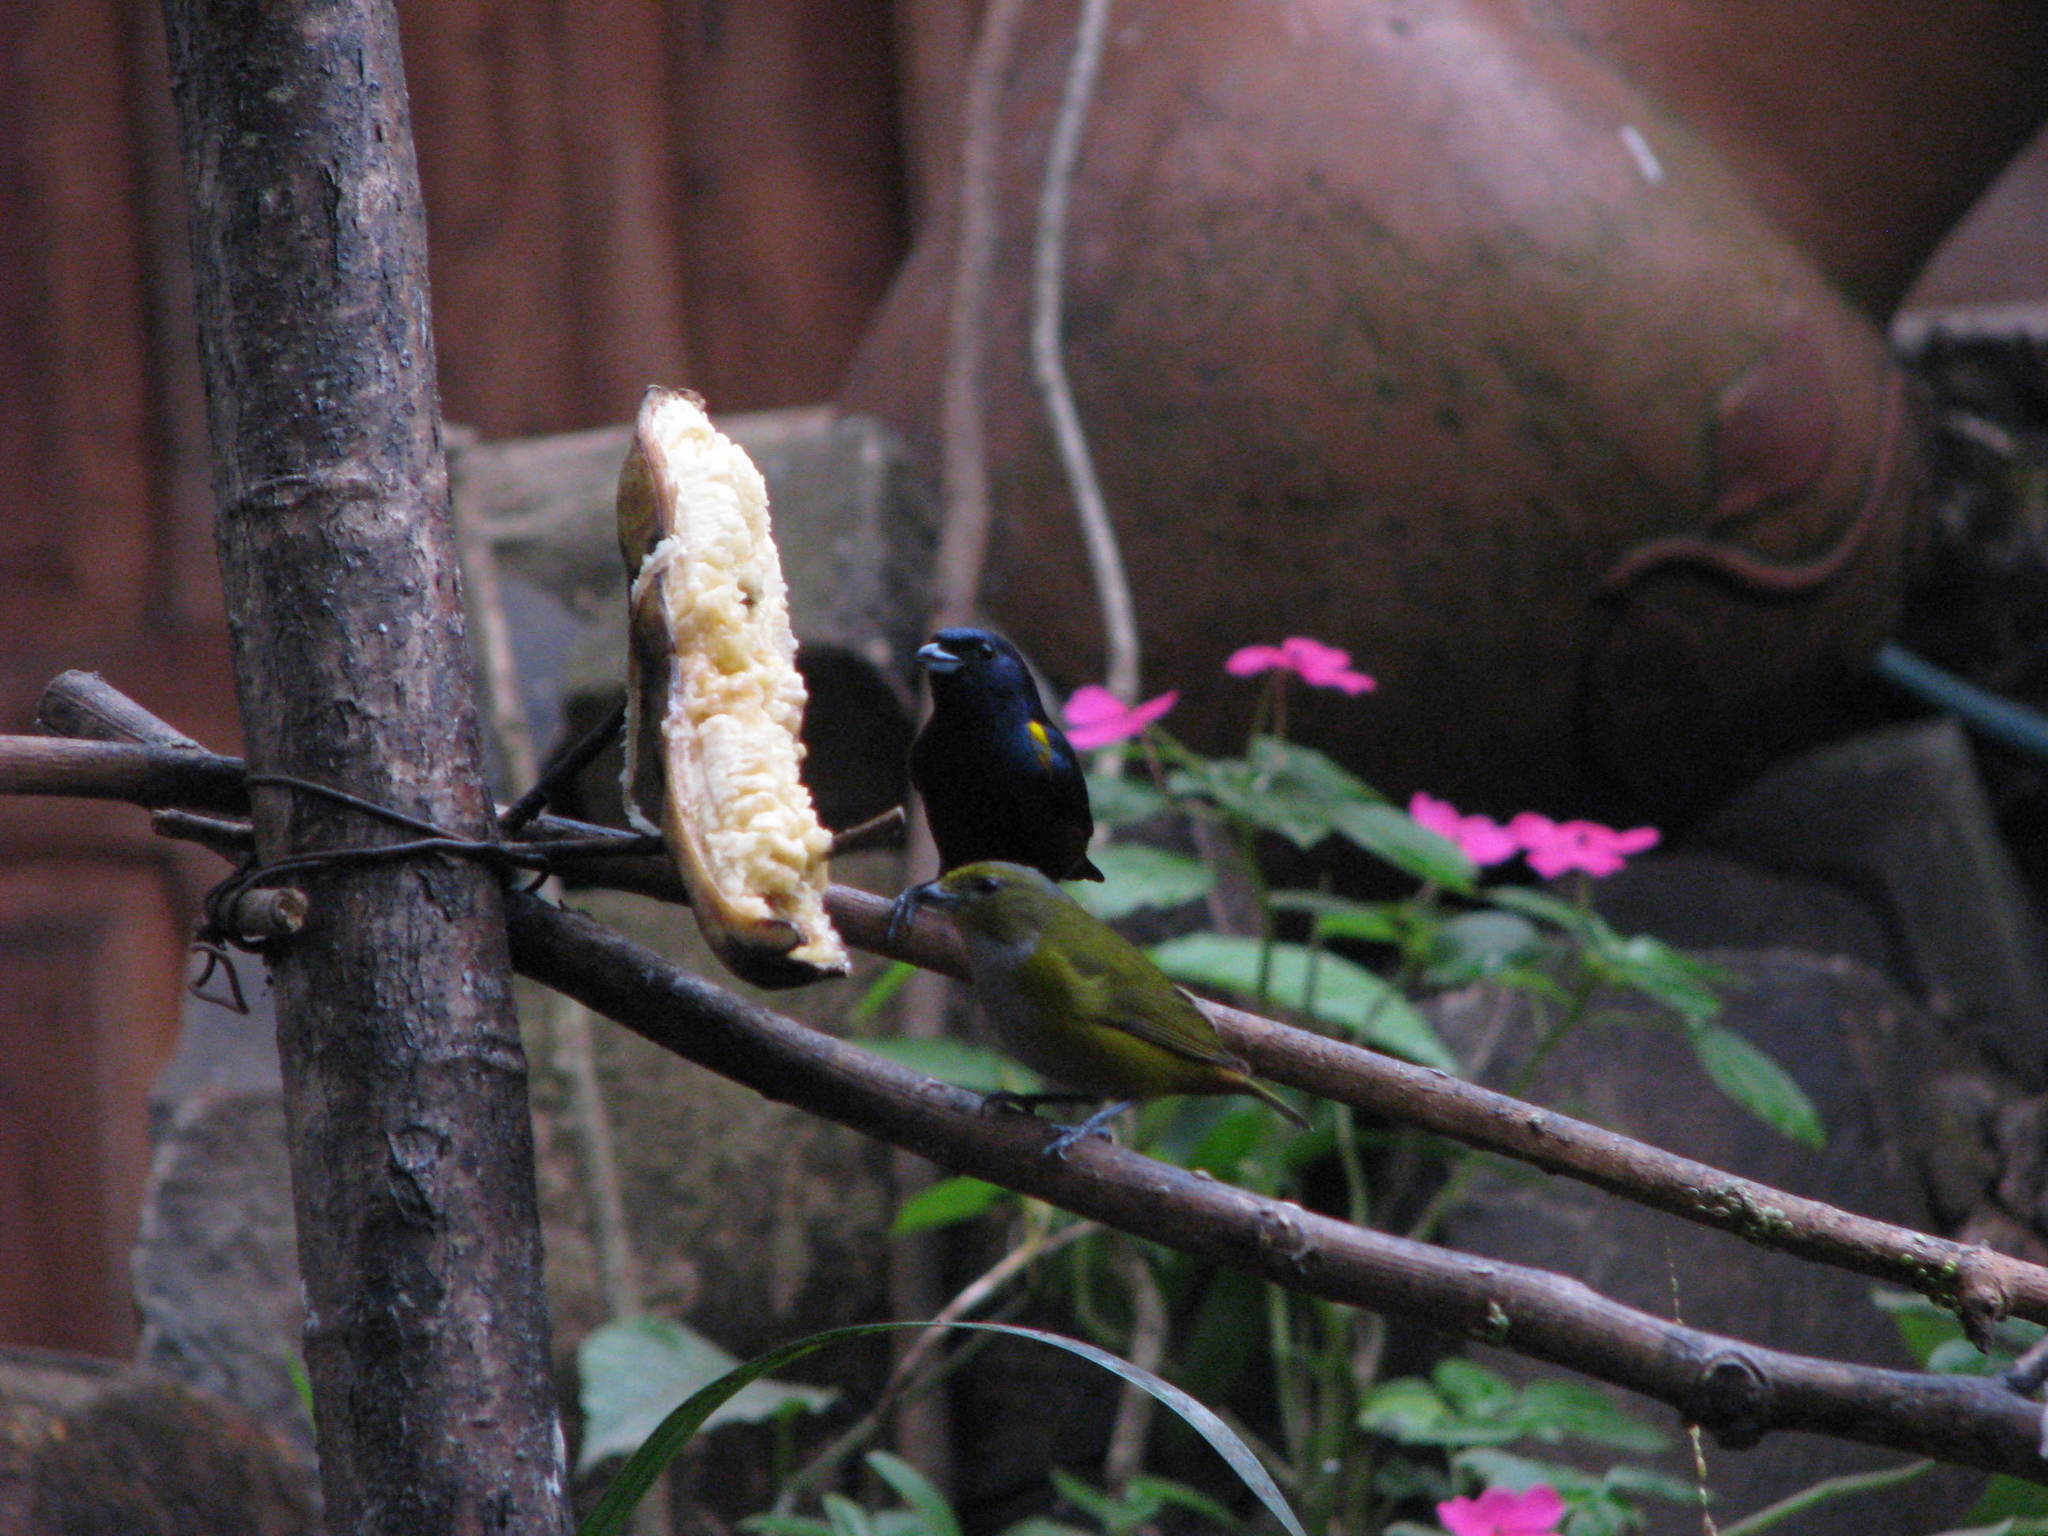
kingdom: Animalia
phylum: Chordata
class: Aves
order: Passeriformes
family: Fringillidae
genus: Euphonia
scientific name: Euphonia pectoralis
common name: Chestnut-bellied euphonia
